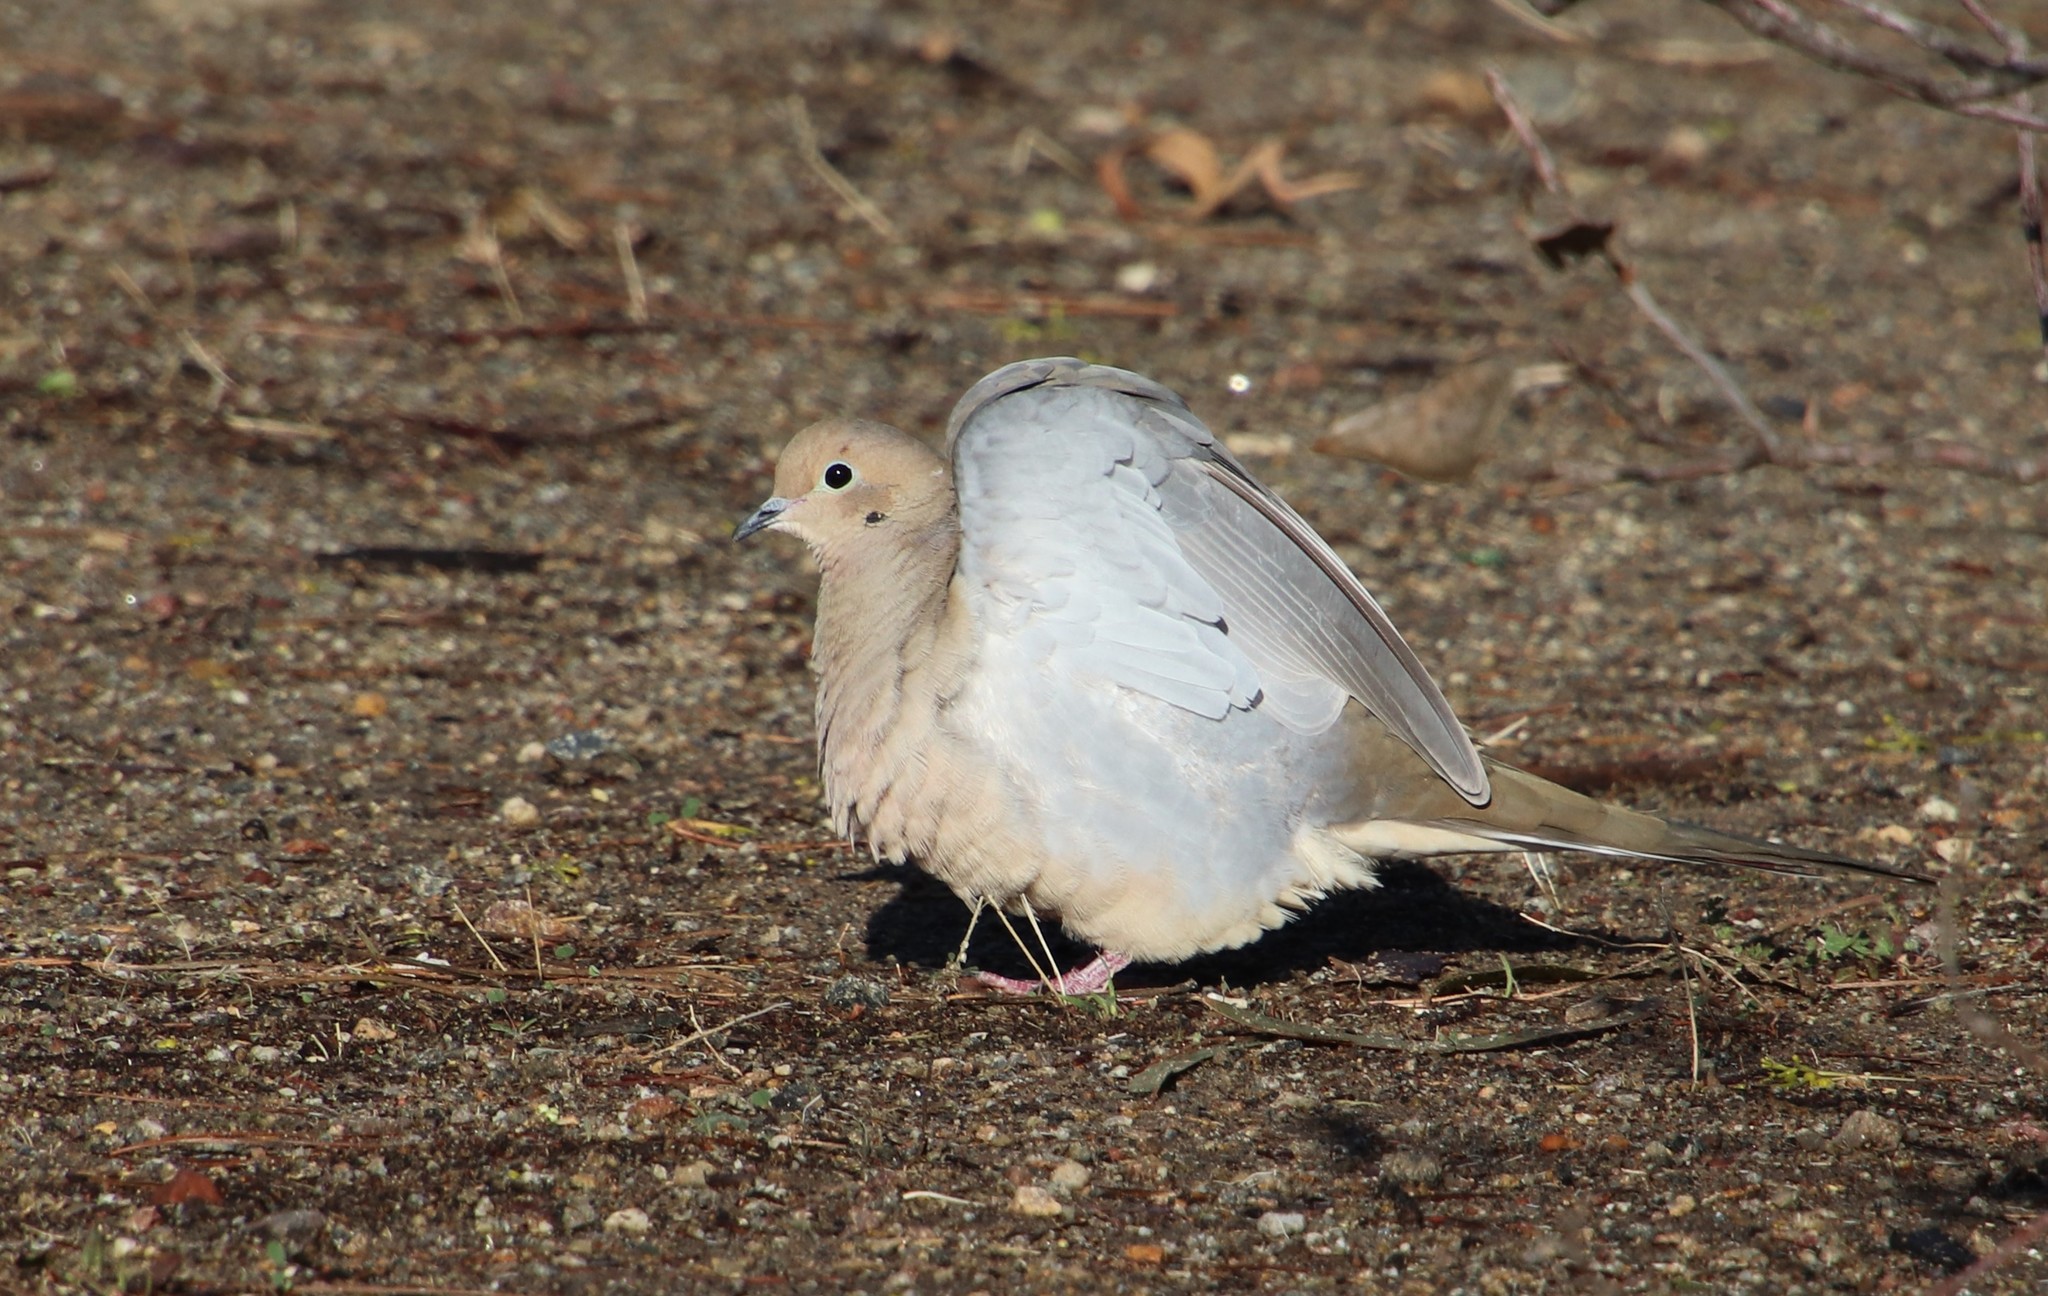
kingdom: Animalia
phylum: Chordata
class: Aves
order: Columbiformes
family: Columbidae
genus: Zenaida
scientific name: Zenaida macroura
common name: Mourning dove
